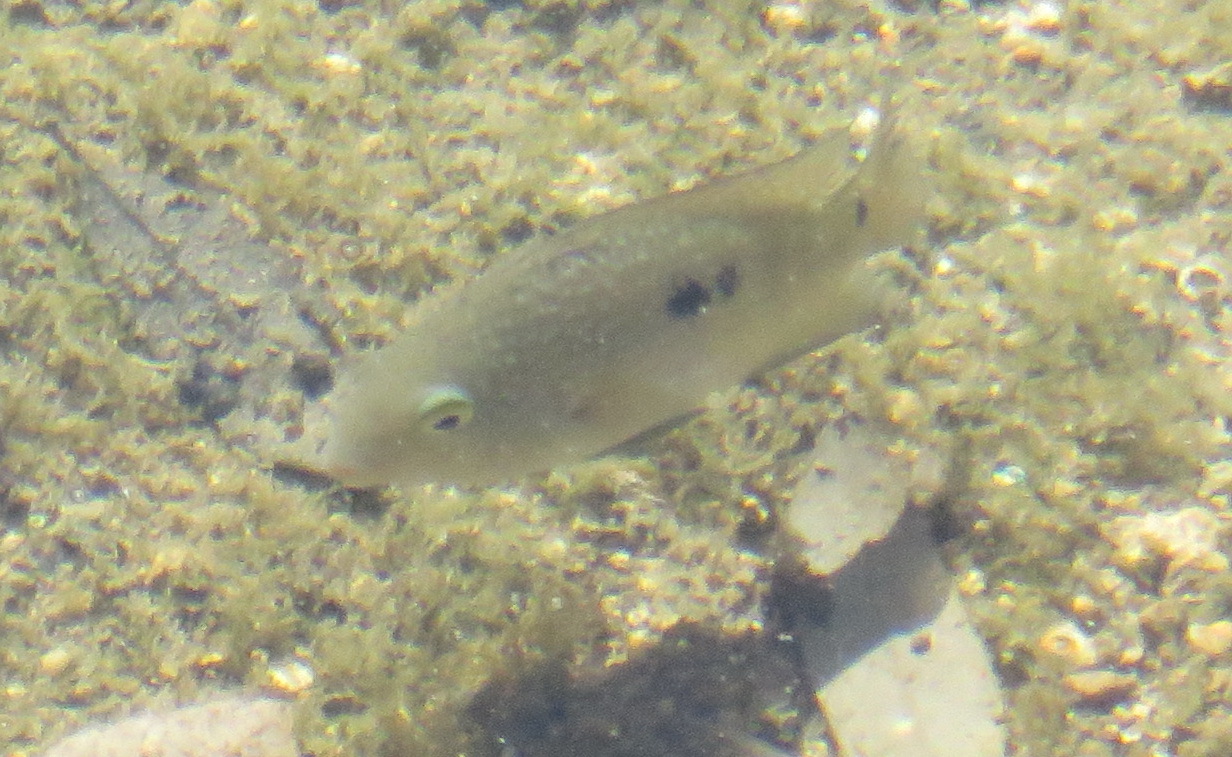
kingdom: Animalia
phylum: Chordata
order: Perciformes
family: Cichlidae
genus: Herichthys
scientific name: Herichthys cyanoguttatus
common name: Rio grande cichlid
